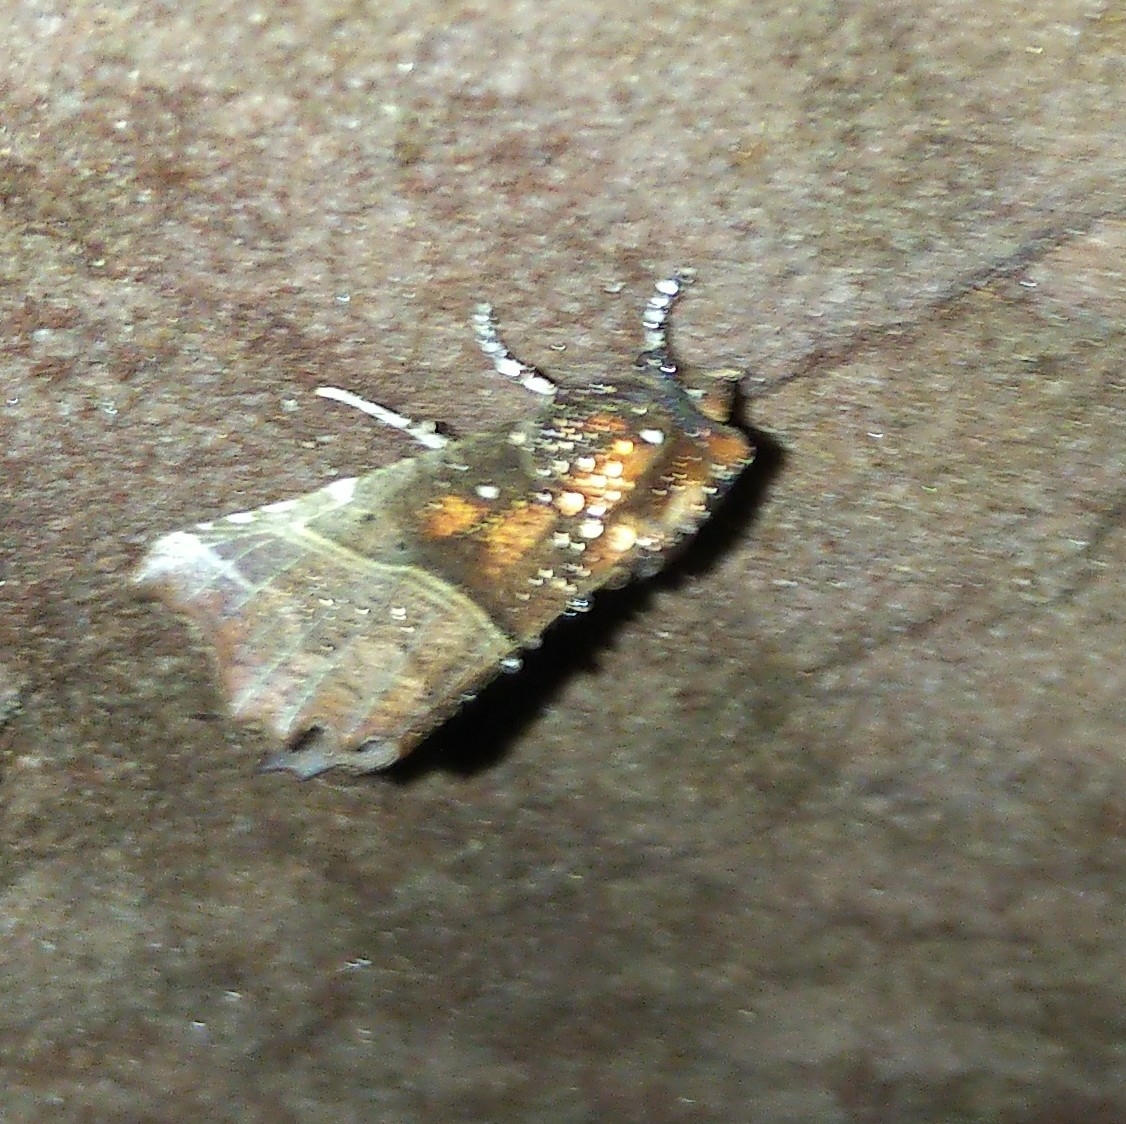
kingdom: Animalia
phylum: Arthropoda
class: Insecta
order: Lepidoptera
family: Erebidae
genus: Scoliopteryx
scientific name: Scoliopteryx libatrix
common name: Herald
